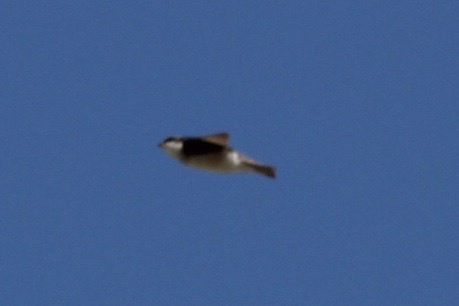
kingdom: Animalia
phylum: Chordata
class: Aves
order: Passeriformes
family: Hirundinidae
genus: Tachycineta
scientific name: Tachycineta bicolor
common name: Tree swallow
